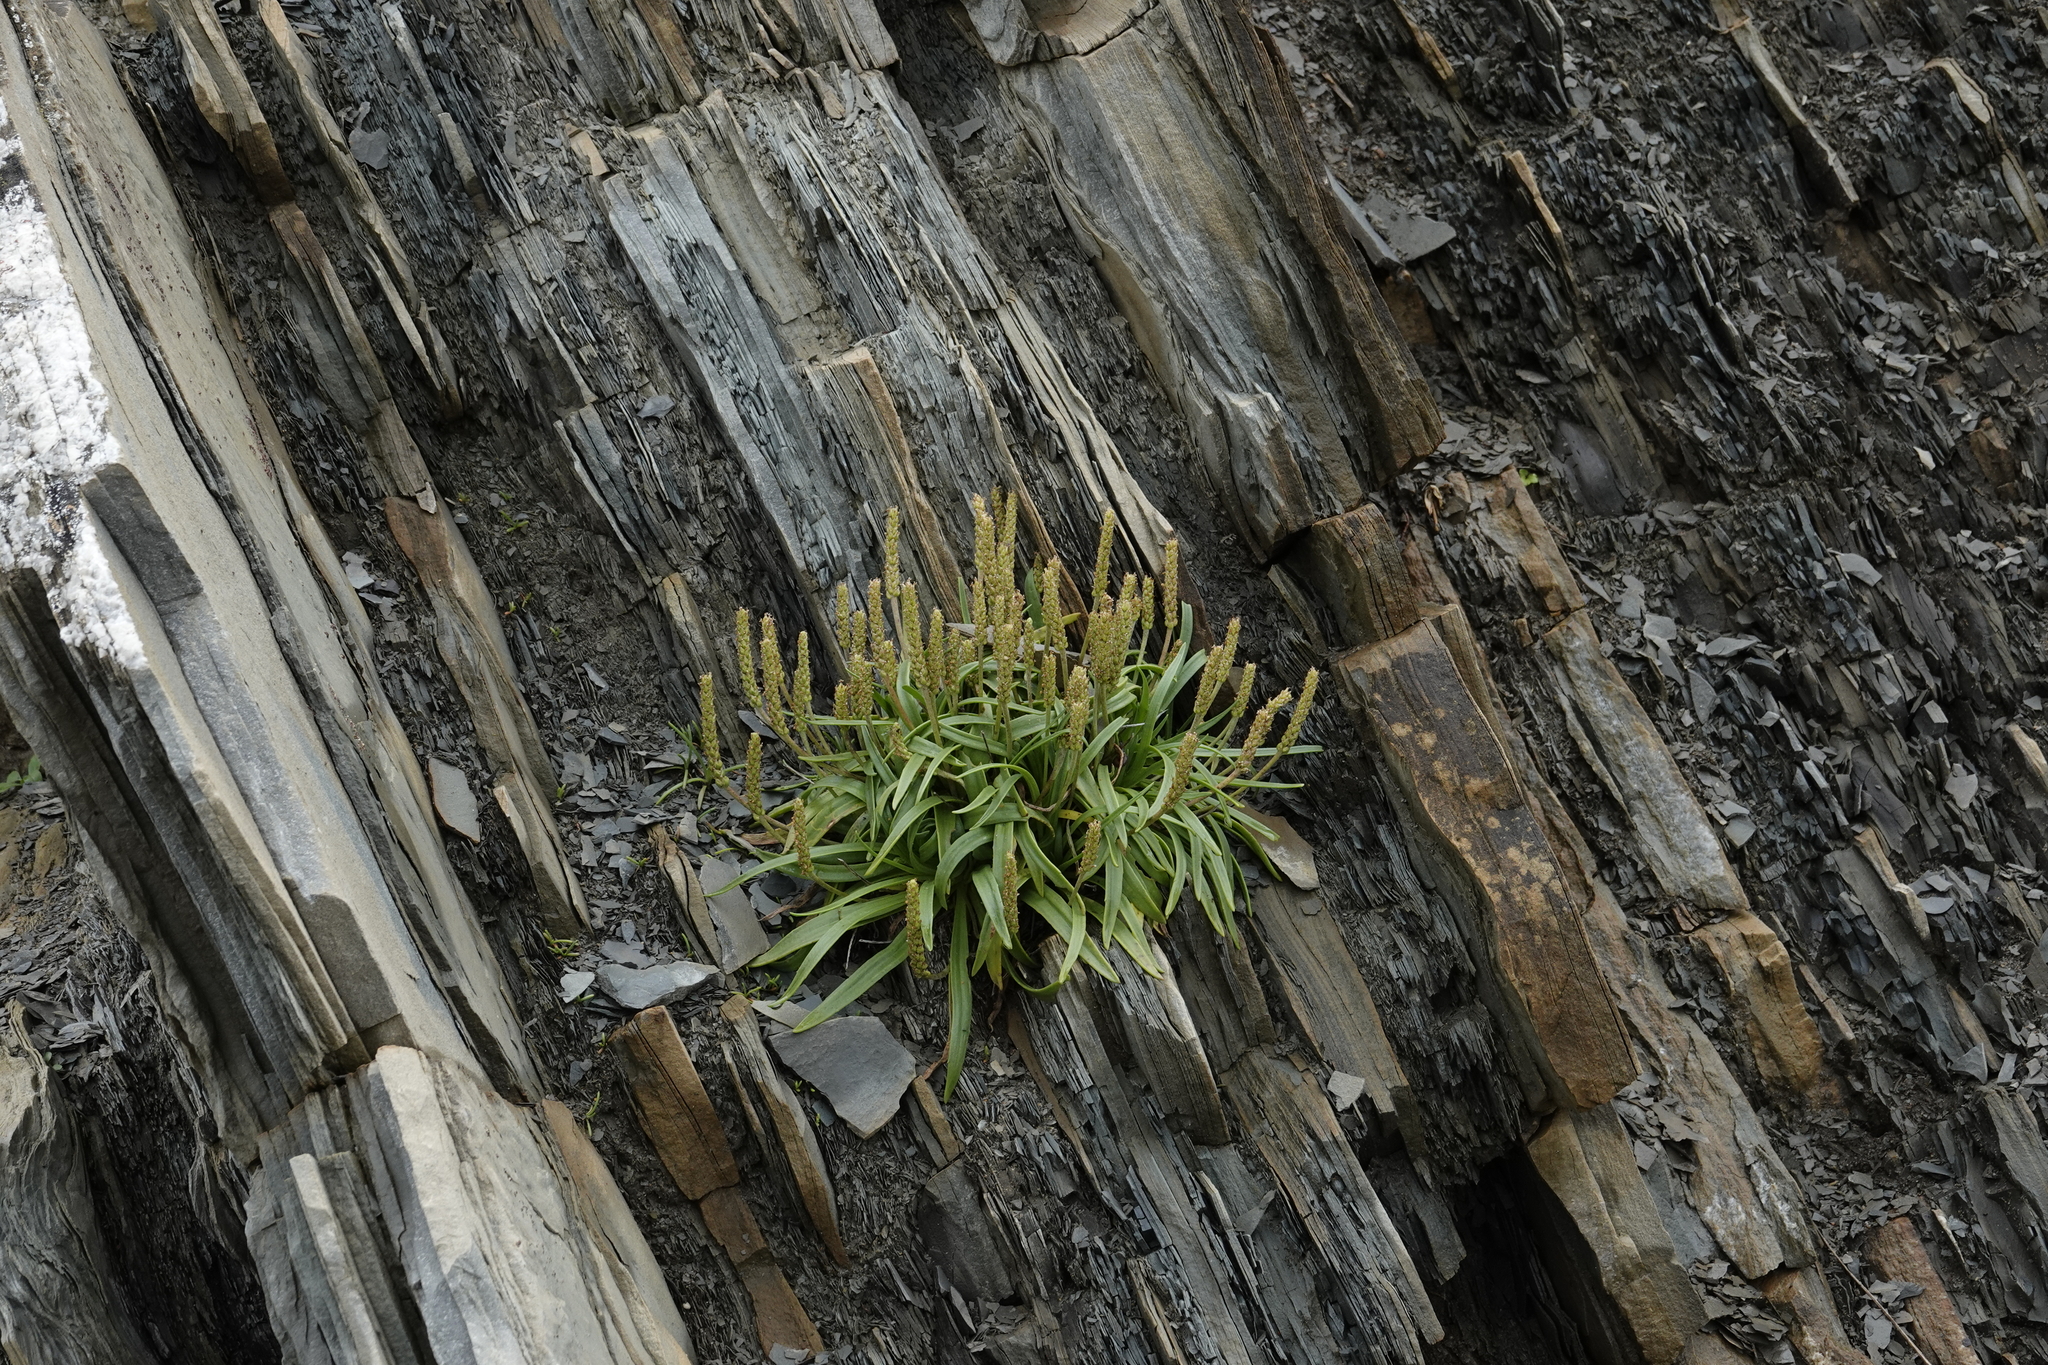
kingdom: Plantae
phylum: Tracheophyta
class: Magnoliopsida
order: Lamiales
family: Plantaginaceae
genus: Plantago
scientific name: Plantago maritima
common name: Sea plantain
